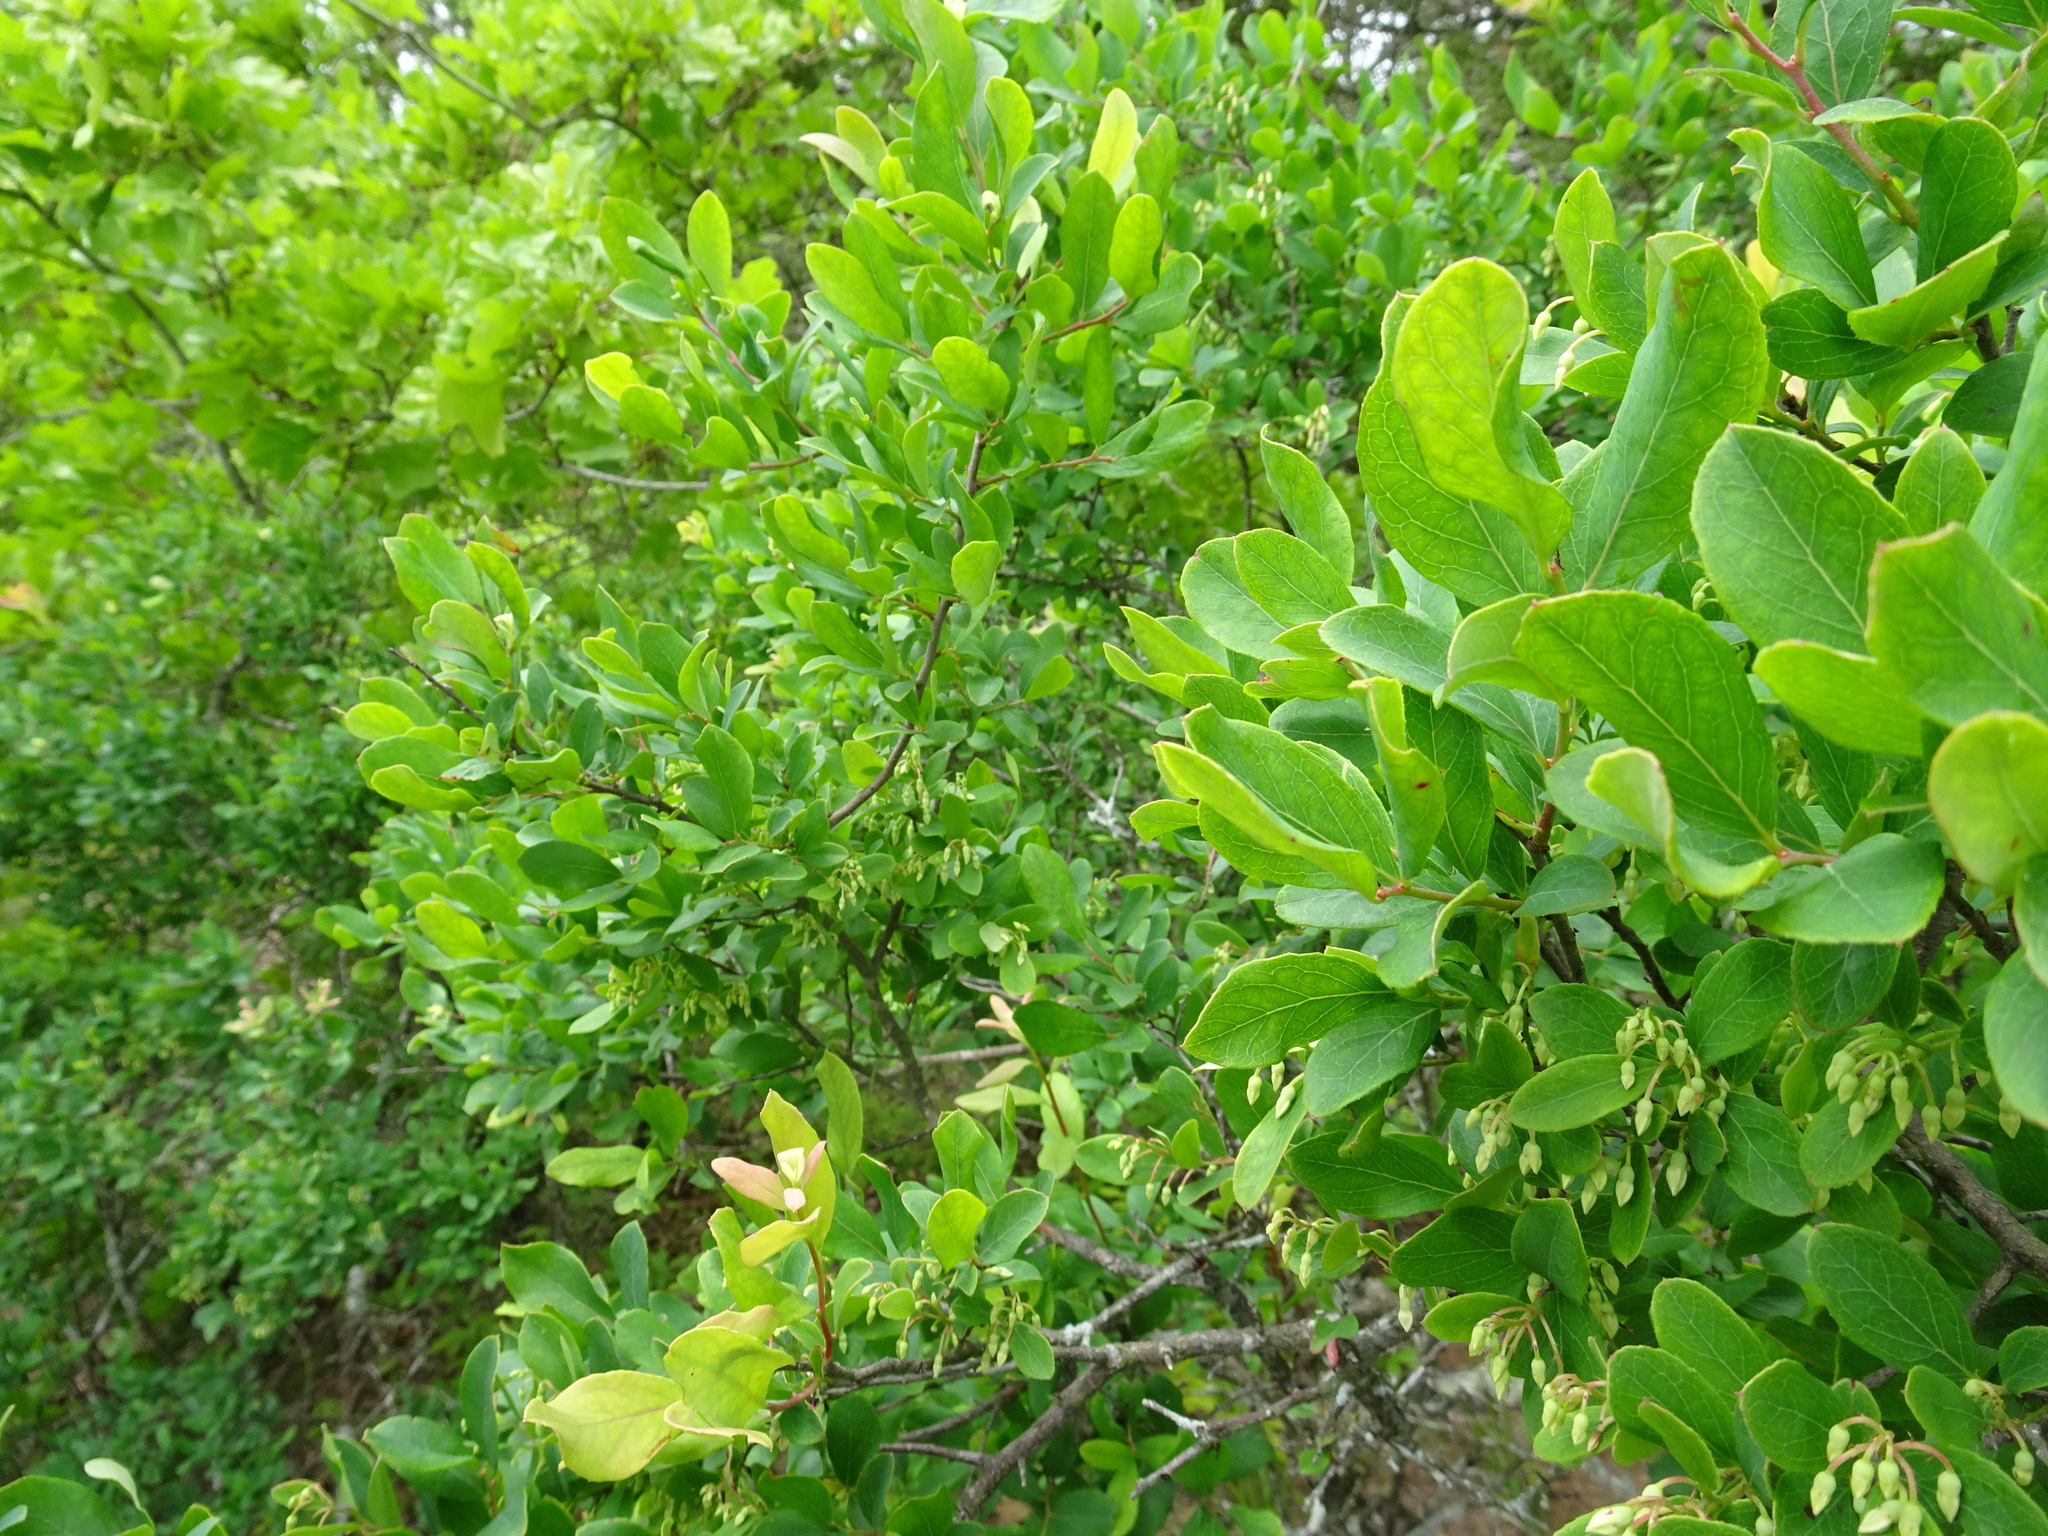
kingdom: Plantae
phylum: Tracheophyta
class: Magnoliopsida
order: Ericales
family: Ericaceae
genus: Vaccinium
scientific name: Vaccinium arboreum
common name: Farkleberry
